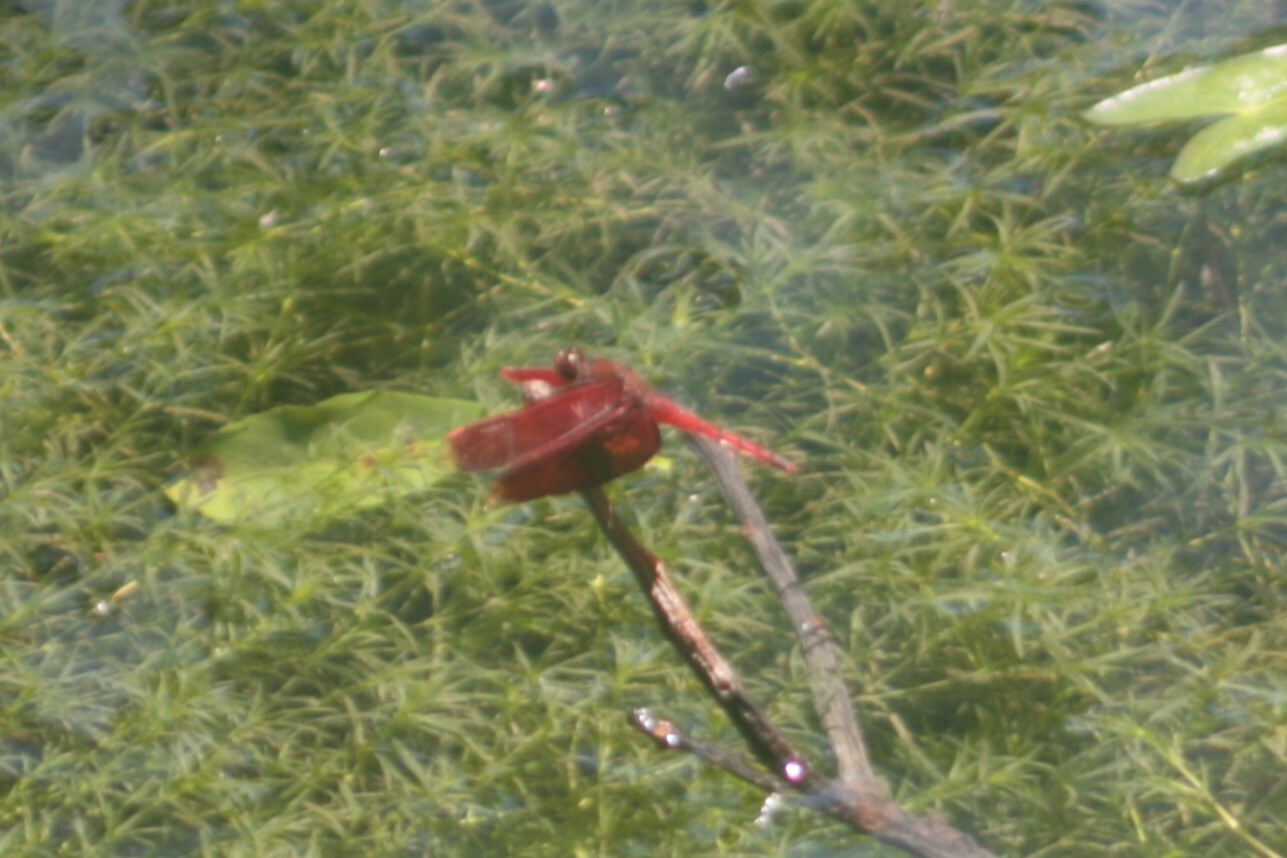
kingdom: Animalia
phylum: Arthropoda
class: Insecta
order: Odonata
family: Libellulidae
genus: Neurothemis
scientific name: Neurothemis taiwanensis
